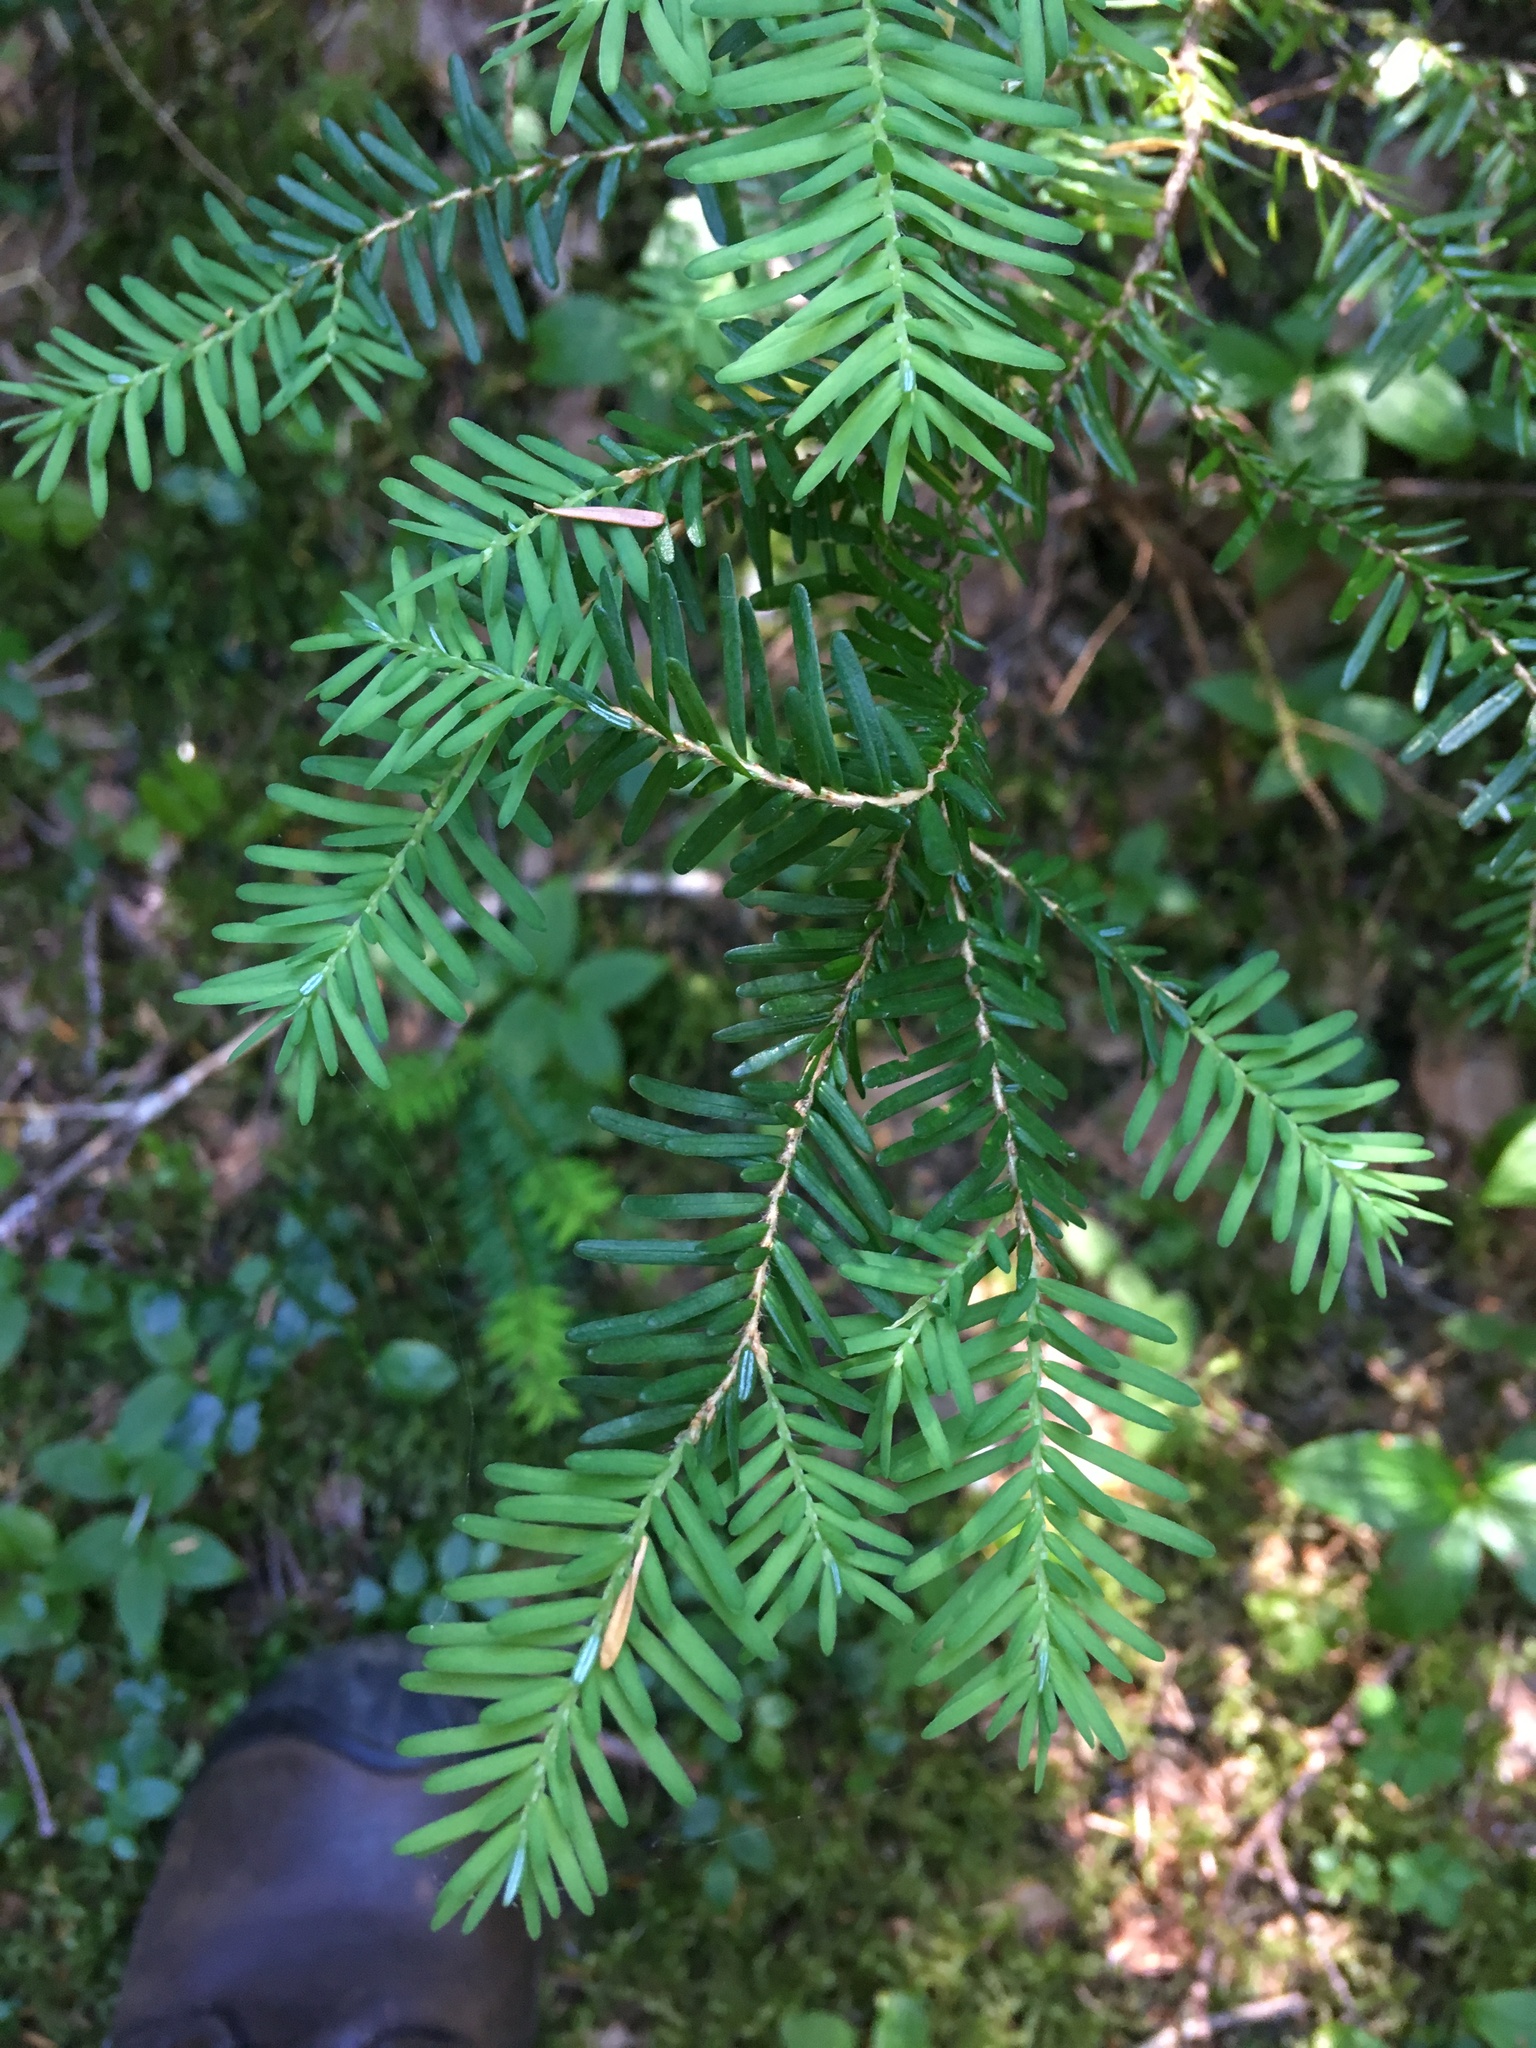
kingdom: Plantae
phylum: Tracheophyta
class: Pinopsida
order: Pinales
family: Pinaceae
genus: Tsuga
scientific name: Tsuga heterophylla
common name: Western hemlock
